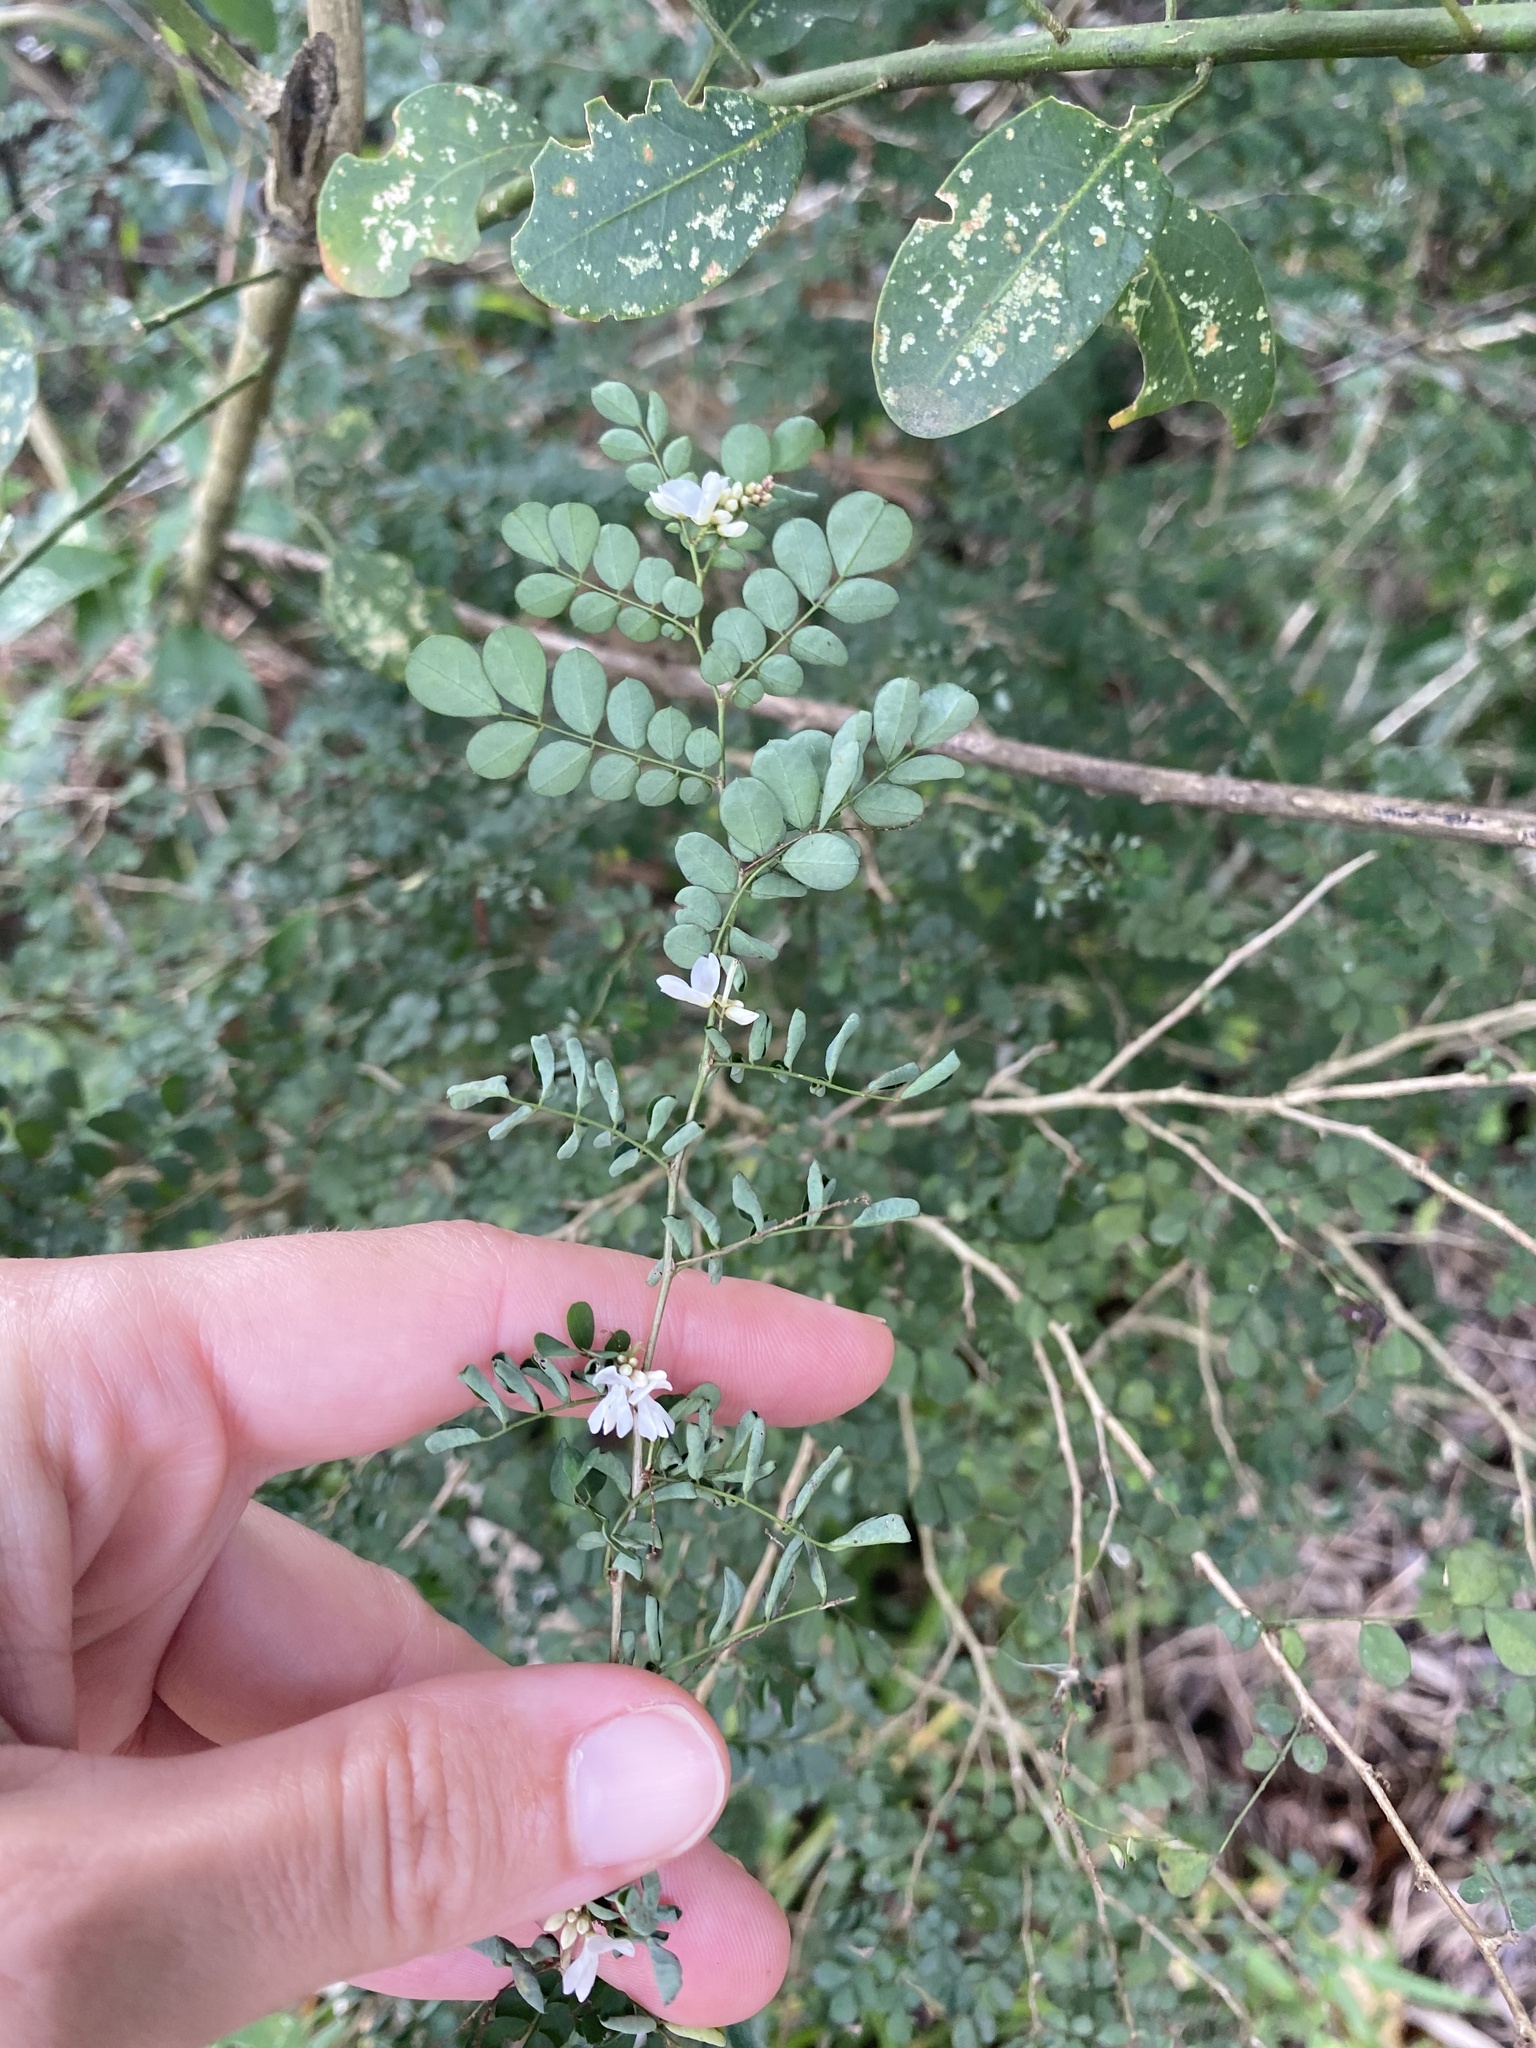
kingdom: Plantae
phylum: Tracheophyta
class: Magnoliopsida
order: Fabales
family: Fabaceae
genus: Indigofera
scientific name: Indigofera
